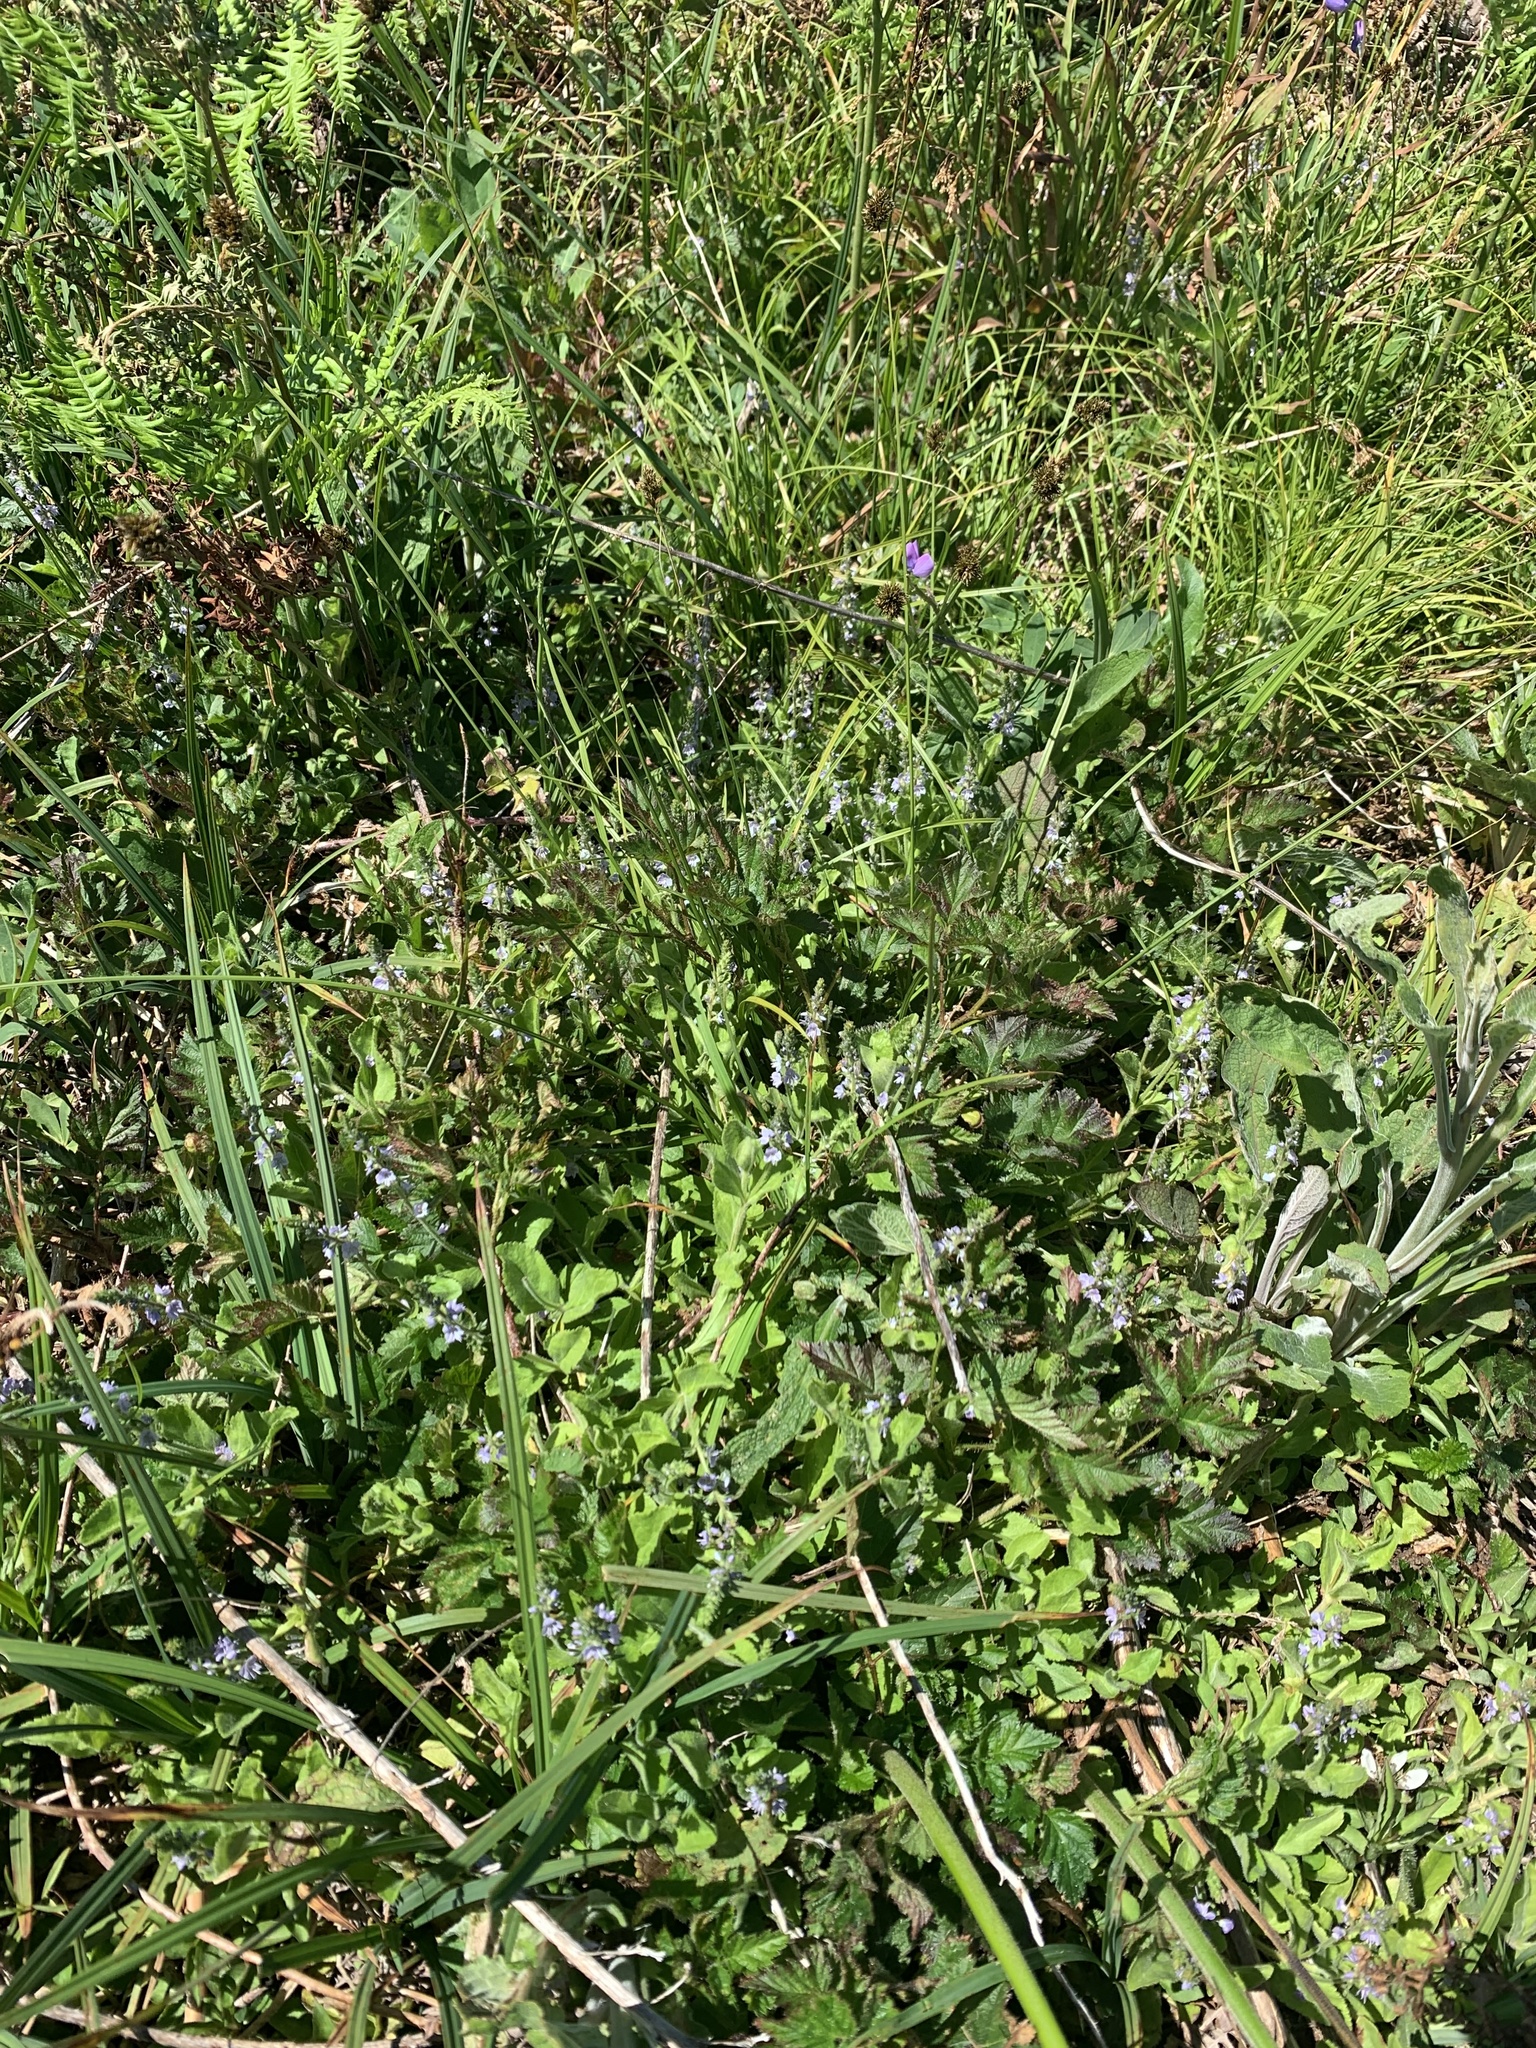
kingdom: Plantae
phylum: Tracheophyta
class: Magnoliopsida
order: Lamiales
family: Plantaginaceae
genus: Veronica
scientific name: Veronica officinalis
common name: Common speedwell
